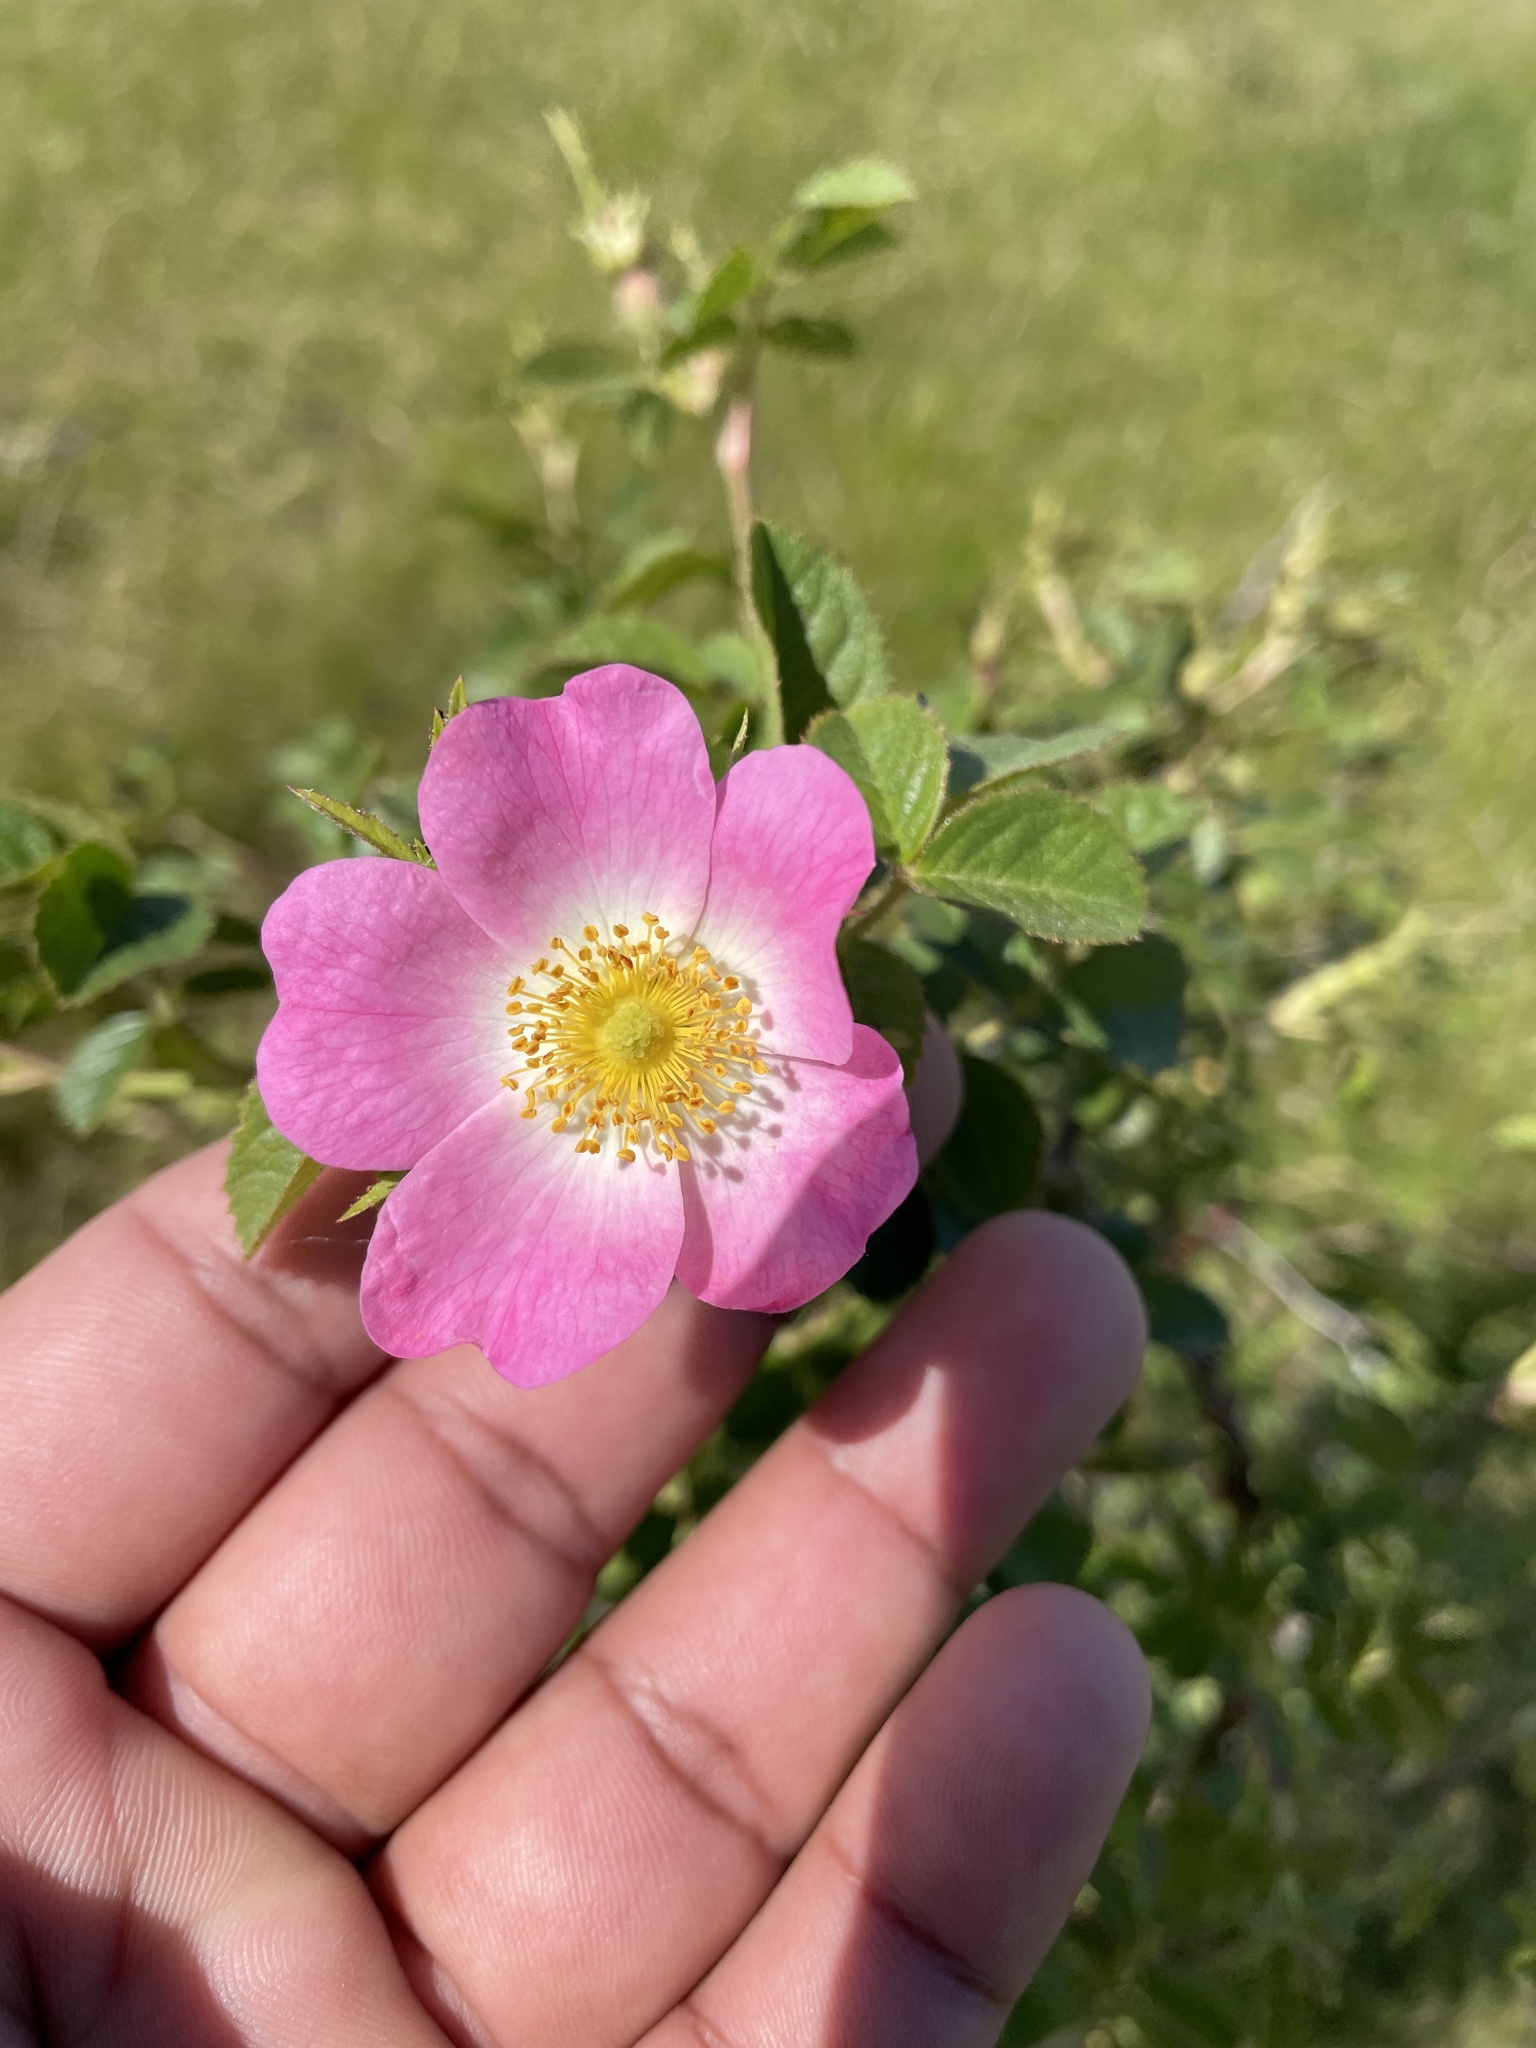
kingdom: Plantae
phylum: Tracheophyta
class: Magnoliopsida
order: Rosales
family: Rosaceae
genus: Rosa
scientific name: Rosa rubiginosa
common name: Sweet-briar
